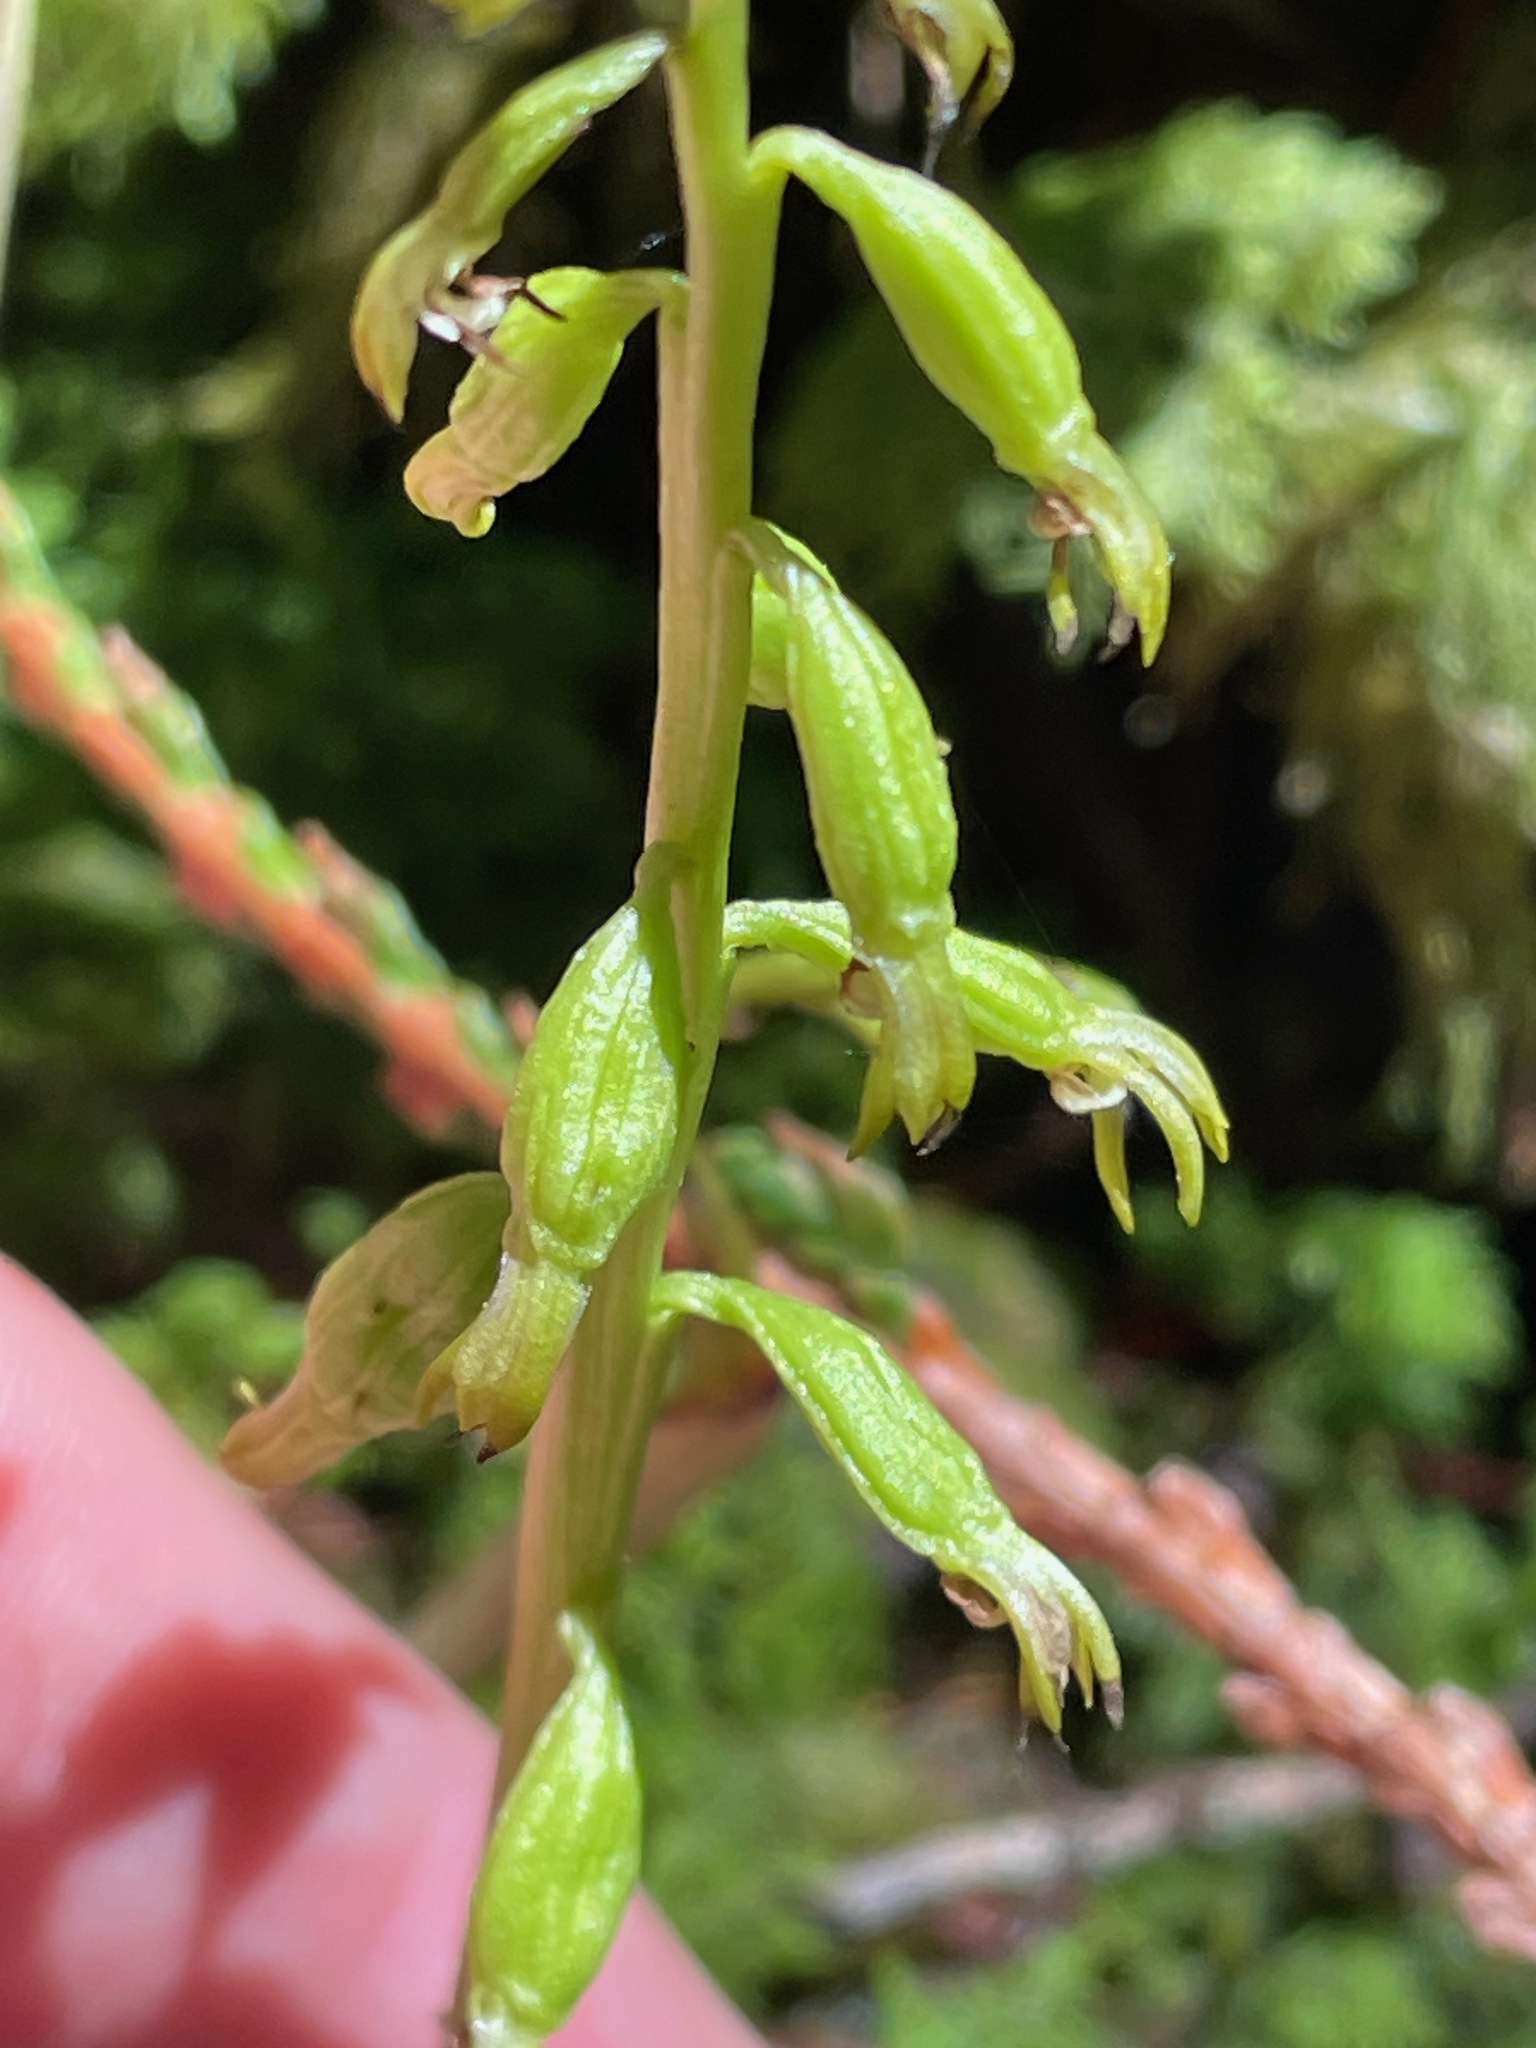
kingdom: Plantae
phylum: Tracheophyta
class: Liliopsida
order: Asparagales
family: Orchidaceae
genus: Corallorhiza
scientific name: Corallorhiza trifida
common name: Yellow coralroot
